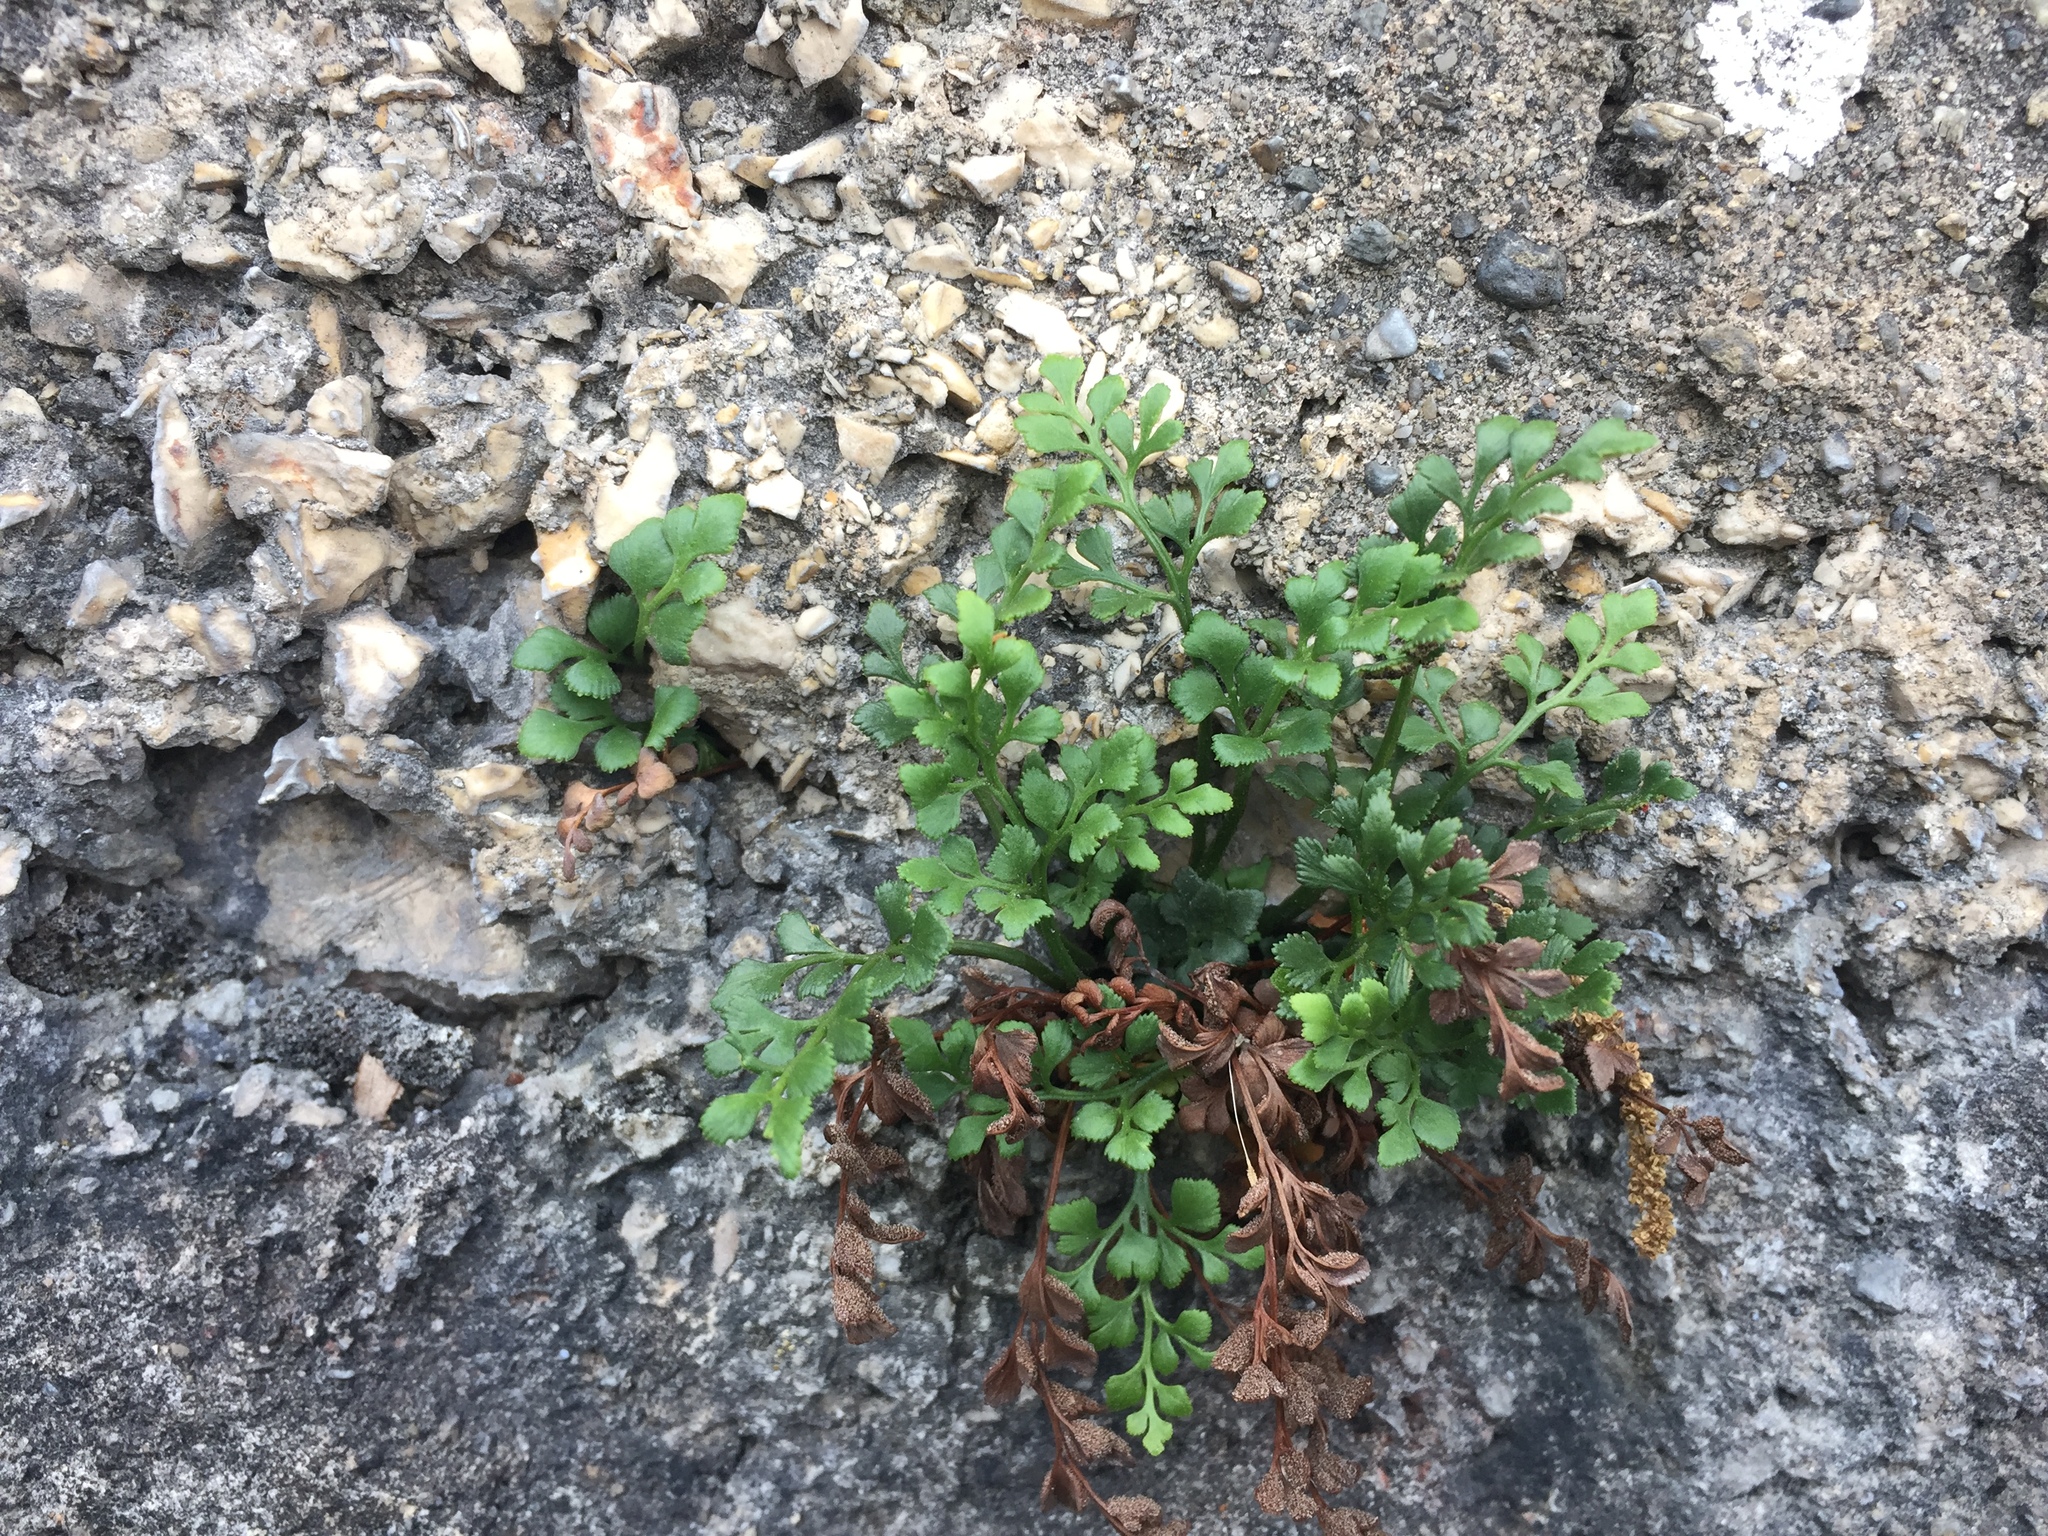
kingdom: Plantae
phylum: Tracheophyta
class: Polypodiopsida
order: Polypodiales
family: Aspleniaceae
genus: Asplenium
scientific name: Asplenium ruta-muraria
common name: Wall-rue
